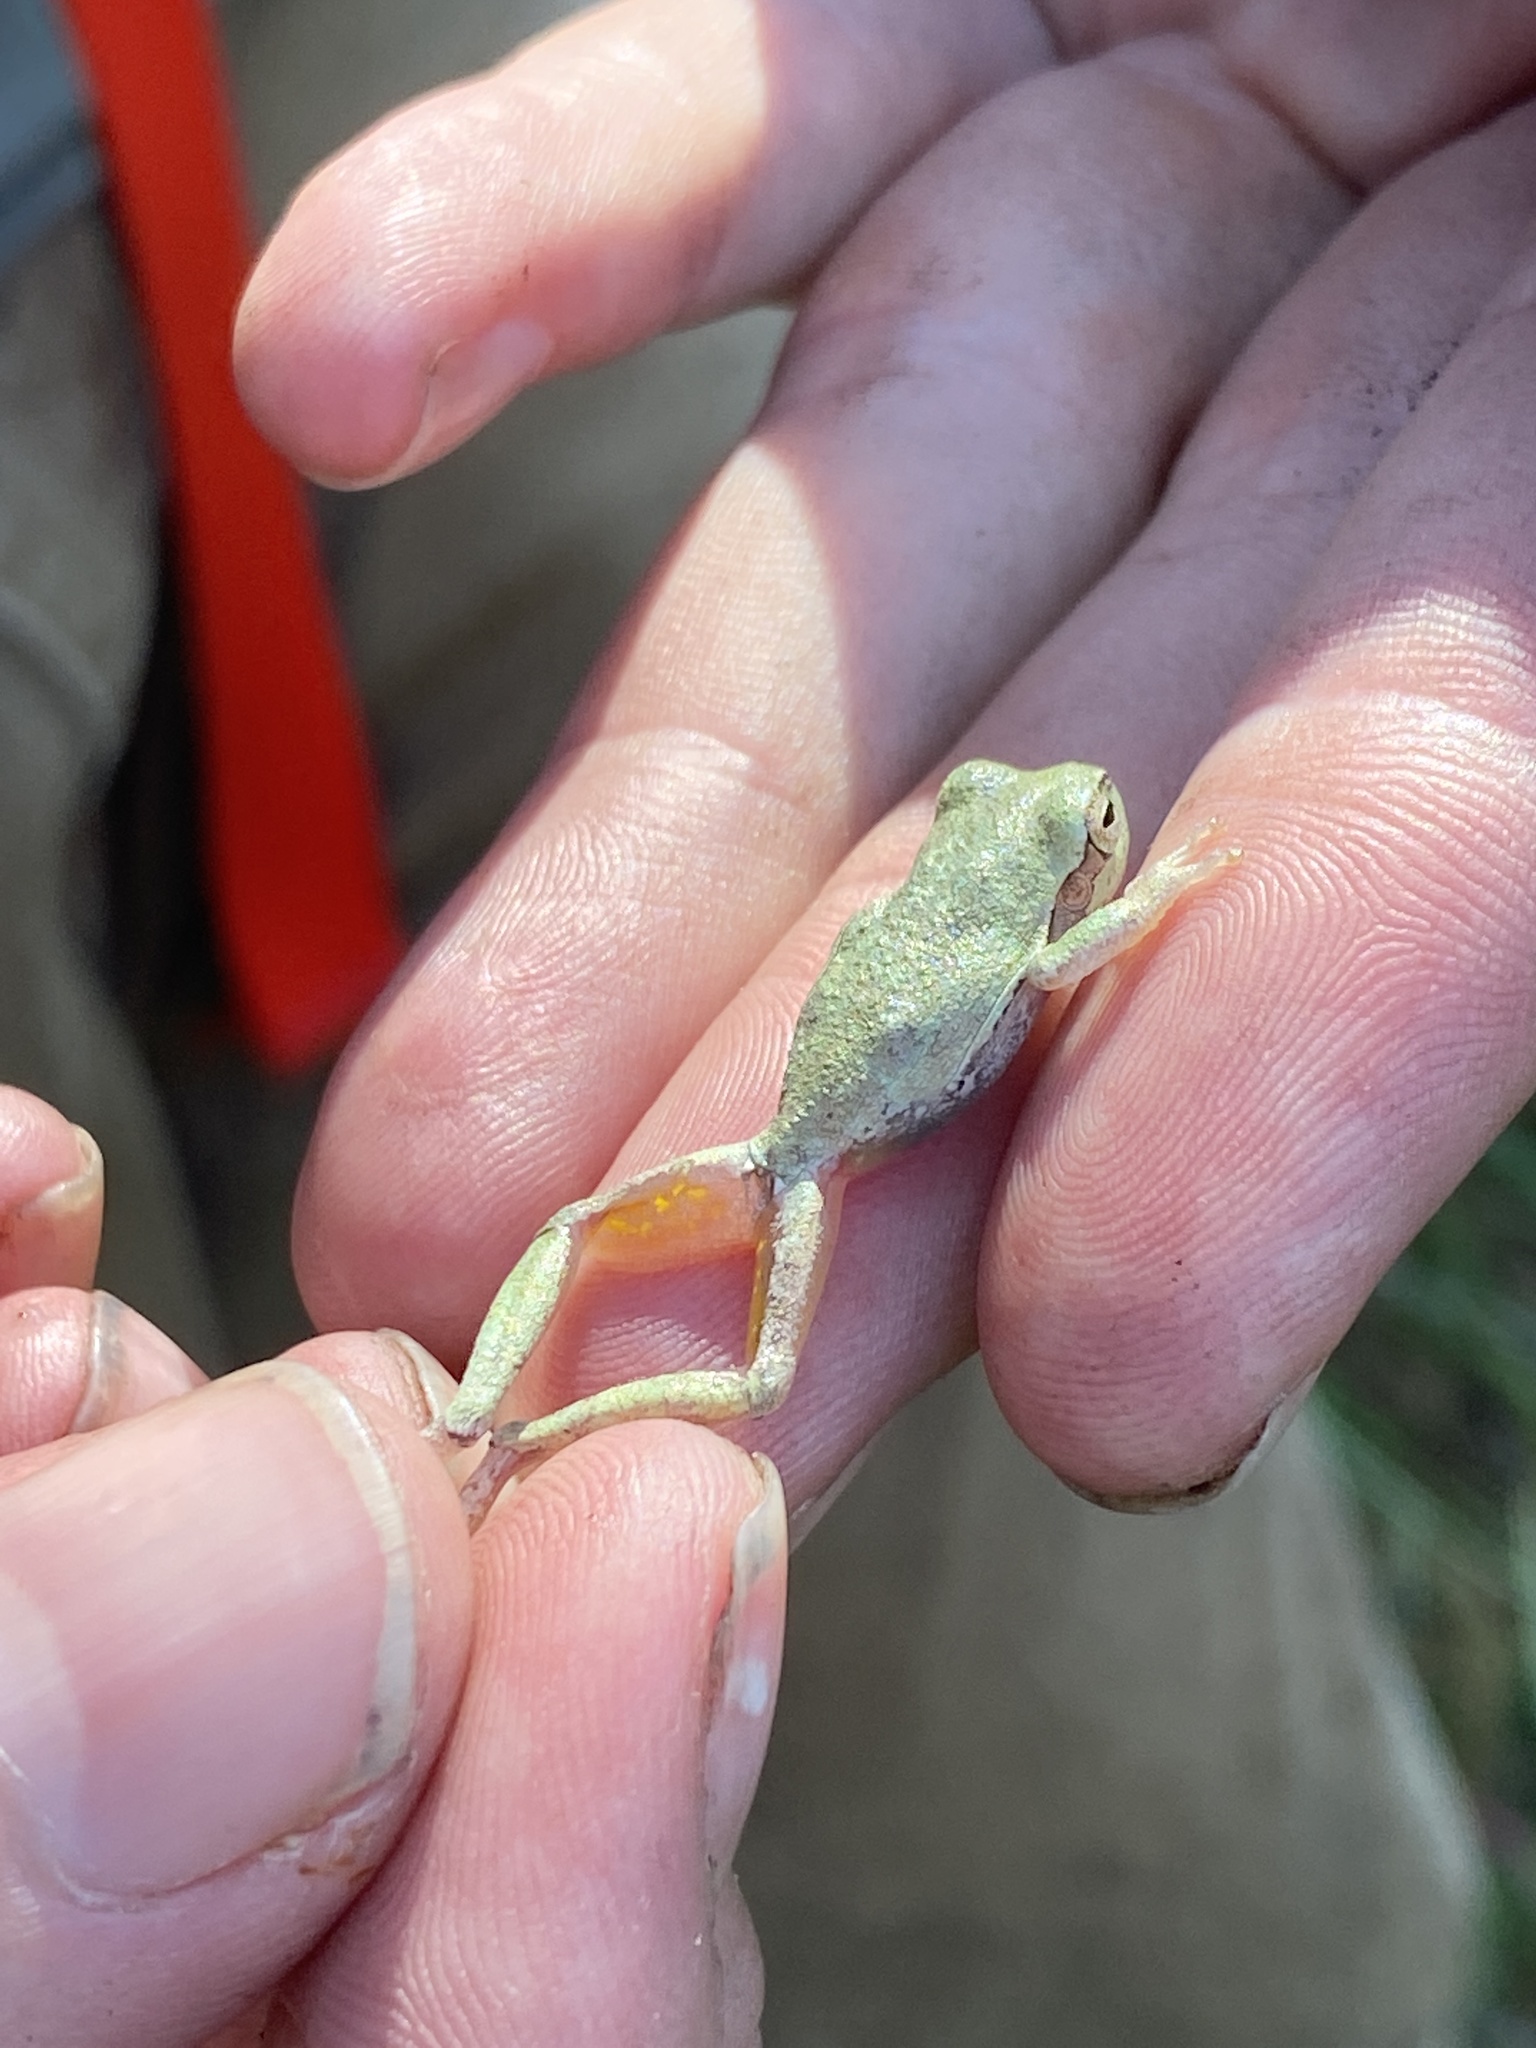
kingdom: Animalia
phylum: Chordata
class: Amphibia
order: Anura
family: Hylidae
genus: Hyla
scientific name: Hyla femoralis
